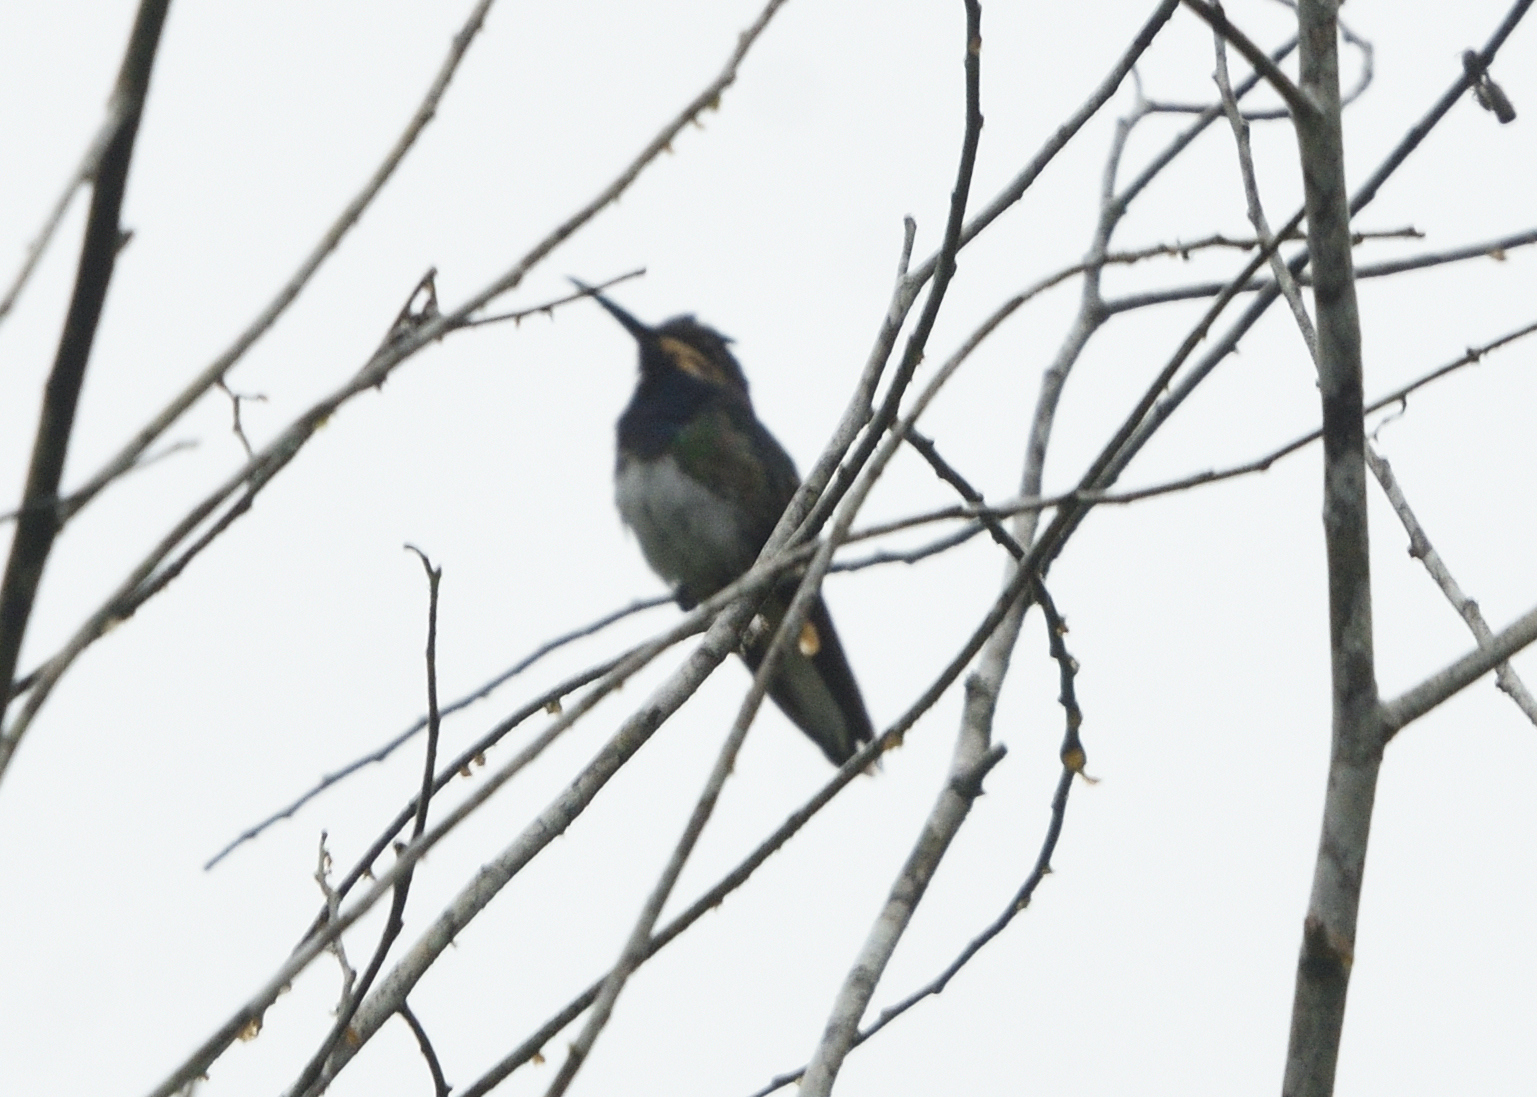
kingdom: Animalia
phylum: Chordata
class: Aves
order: Apodiformes
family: Trochilidae
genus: Florisuga
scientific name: Florisuga mellivora
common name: White-necked jacobin
